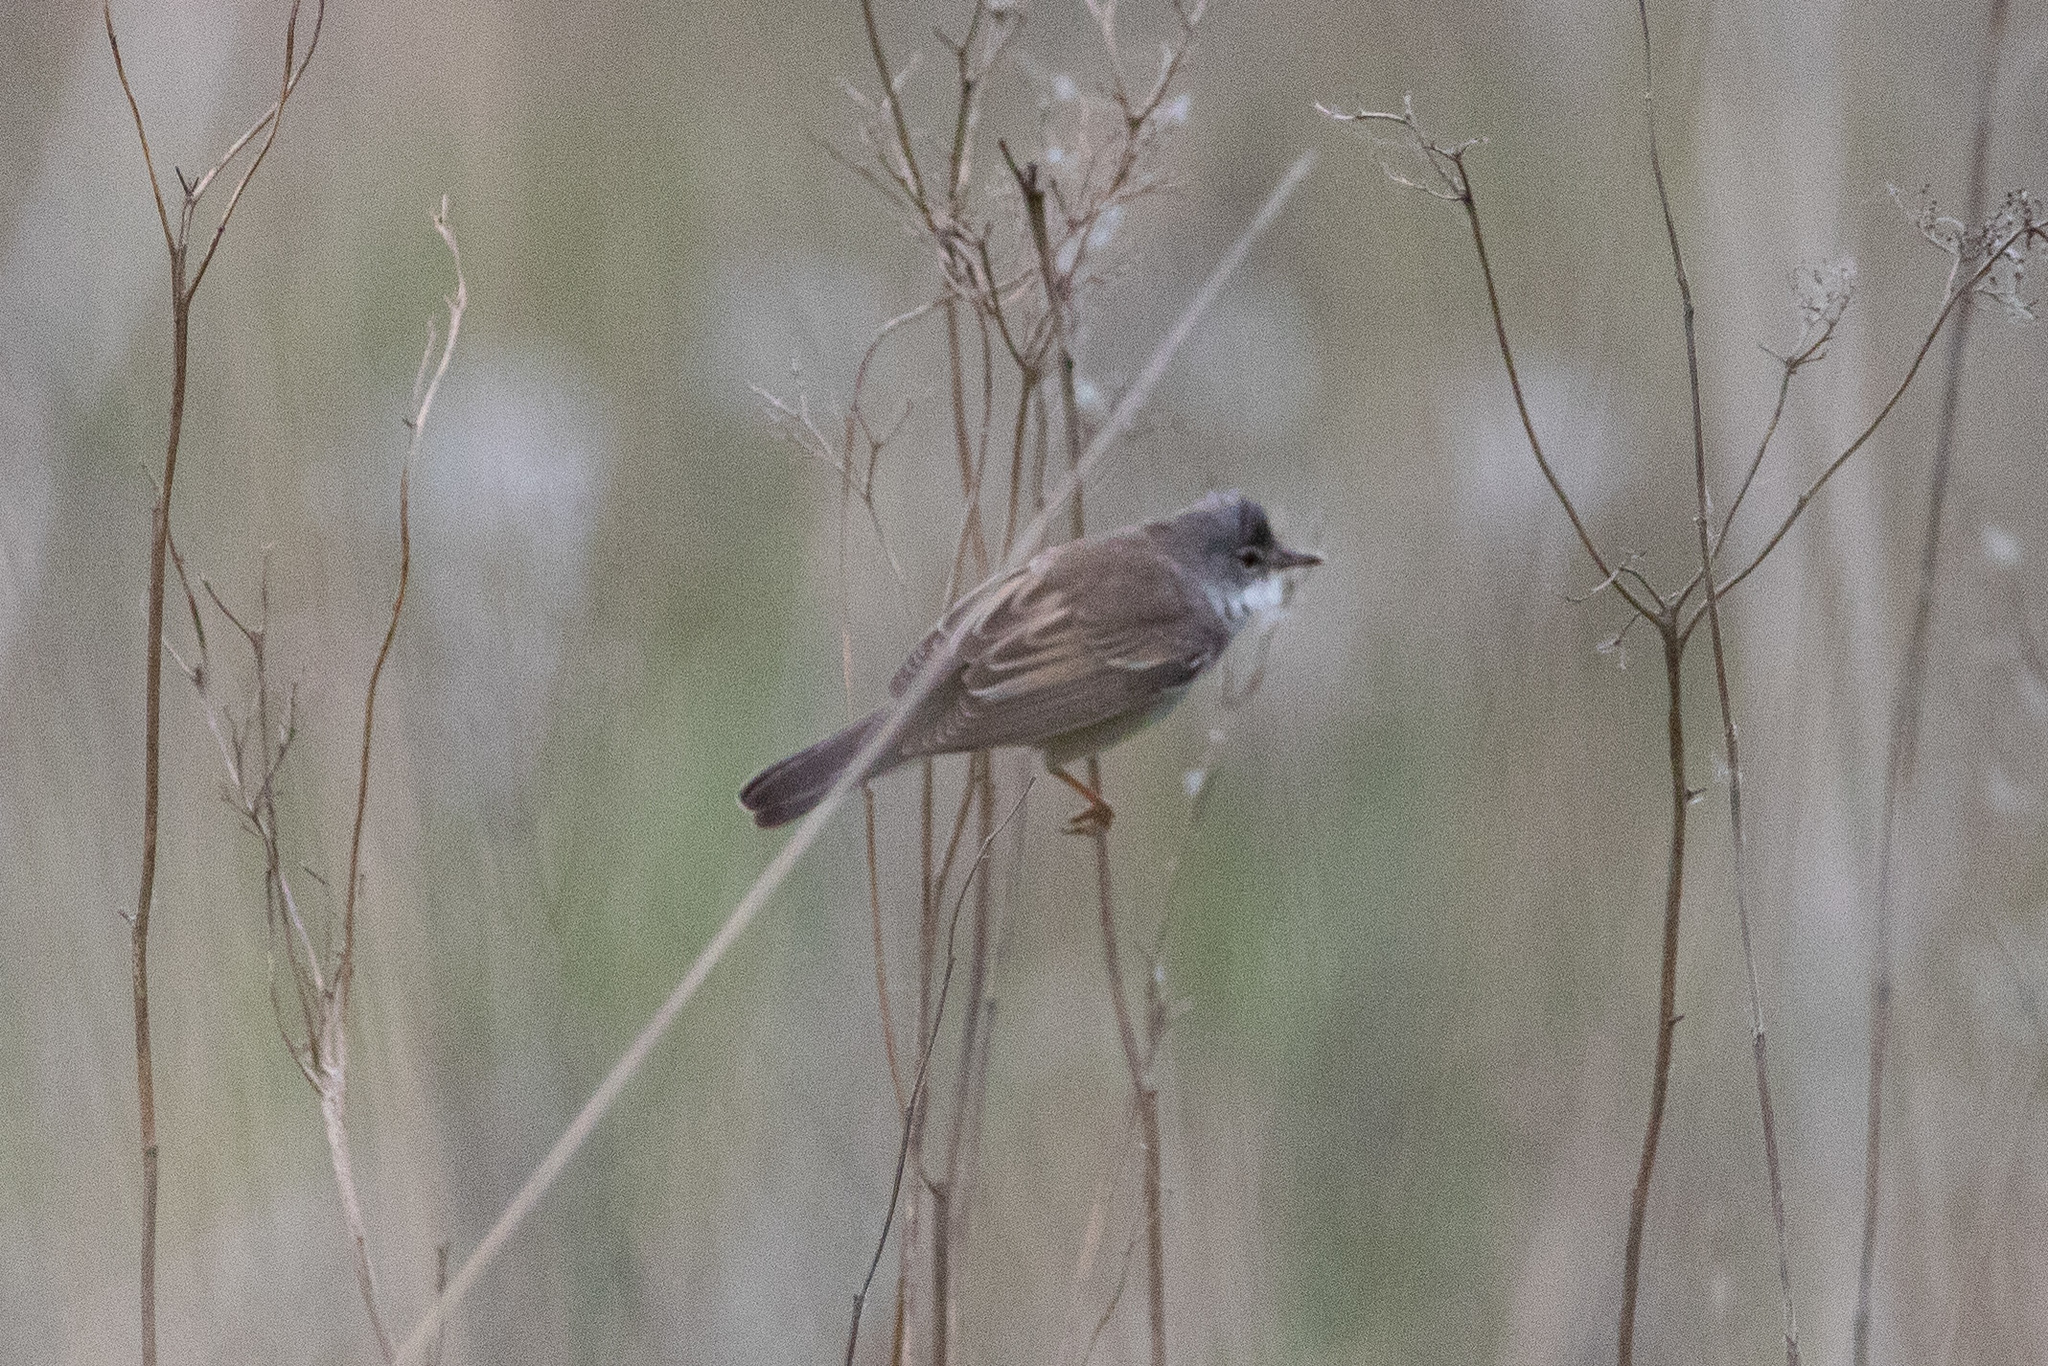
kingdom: Animalia
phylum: Chordata
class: Aves
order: Passeriformes
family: Sylviidae
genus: Sylvia
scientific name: Sylvia communis
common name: Common whitethroat
